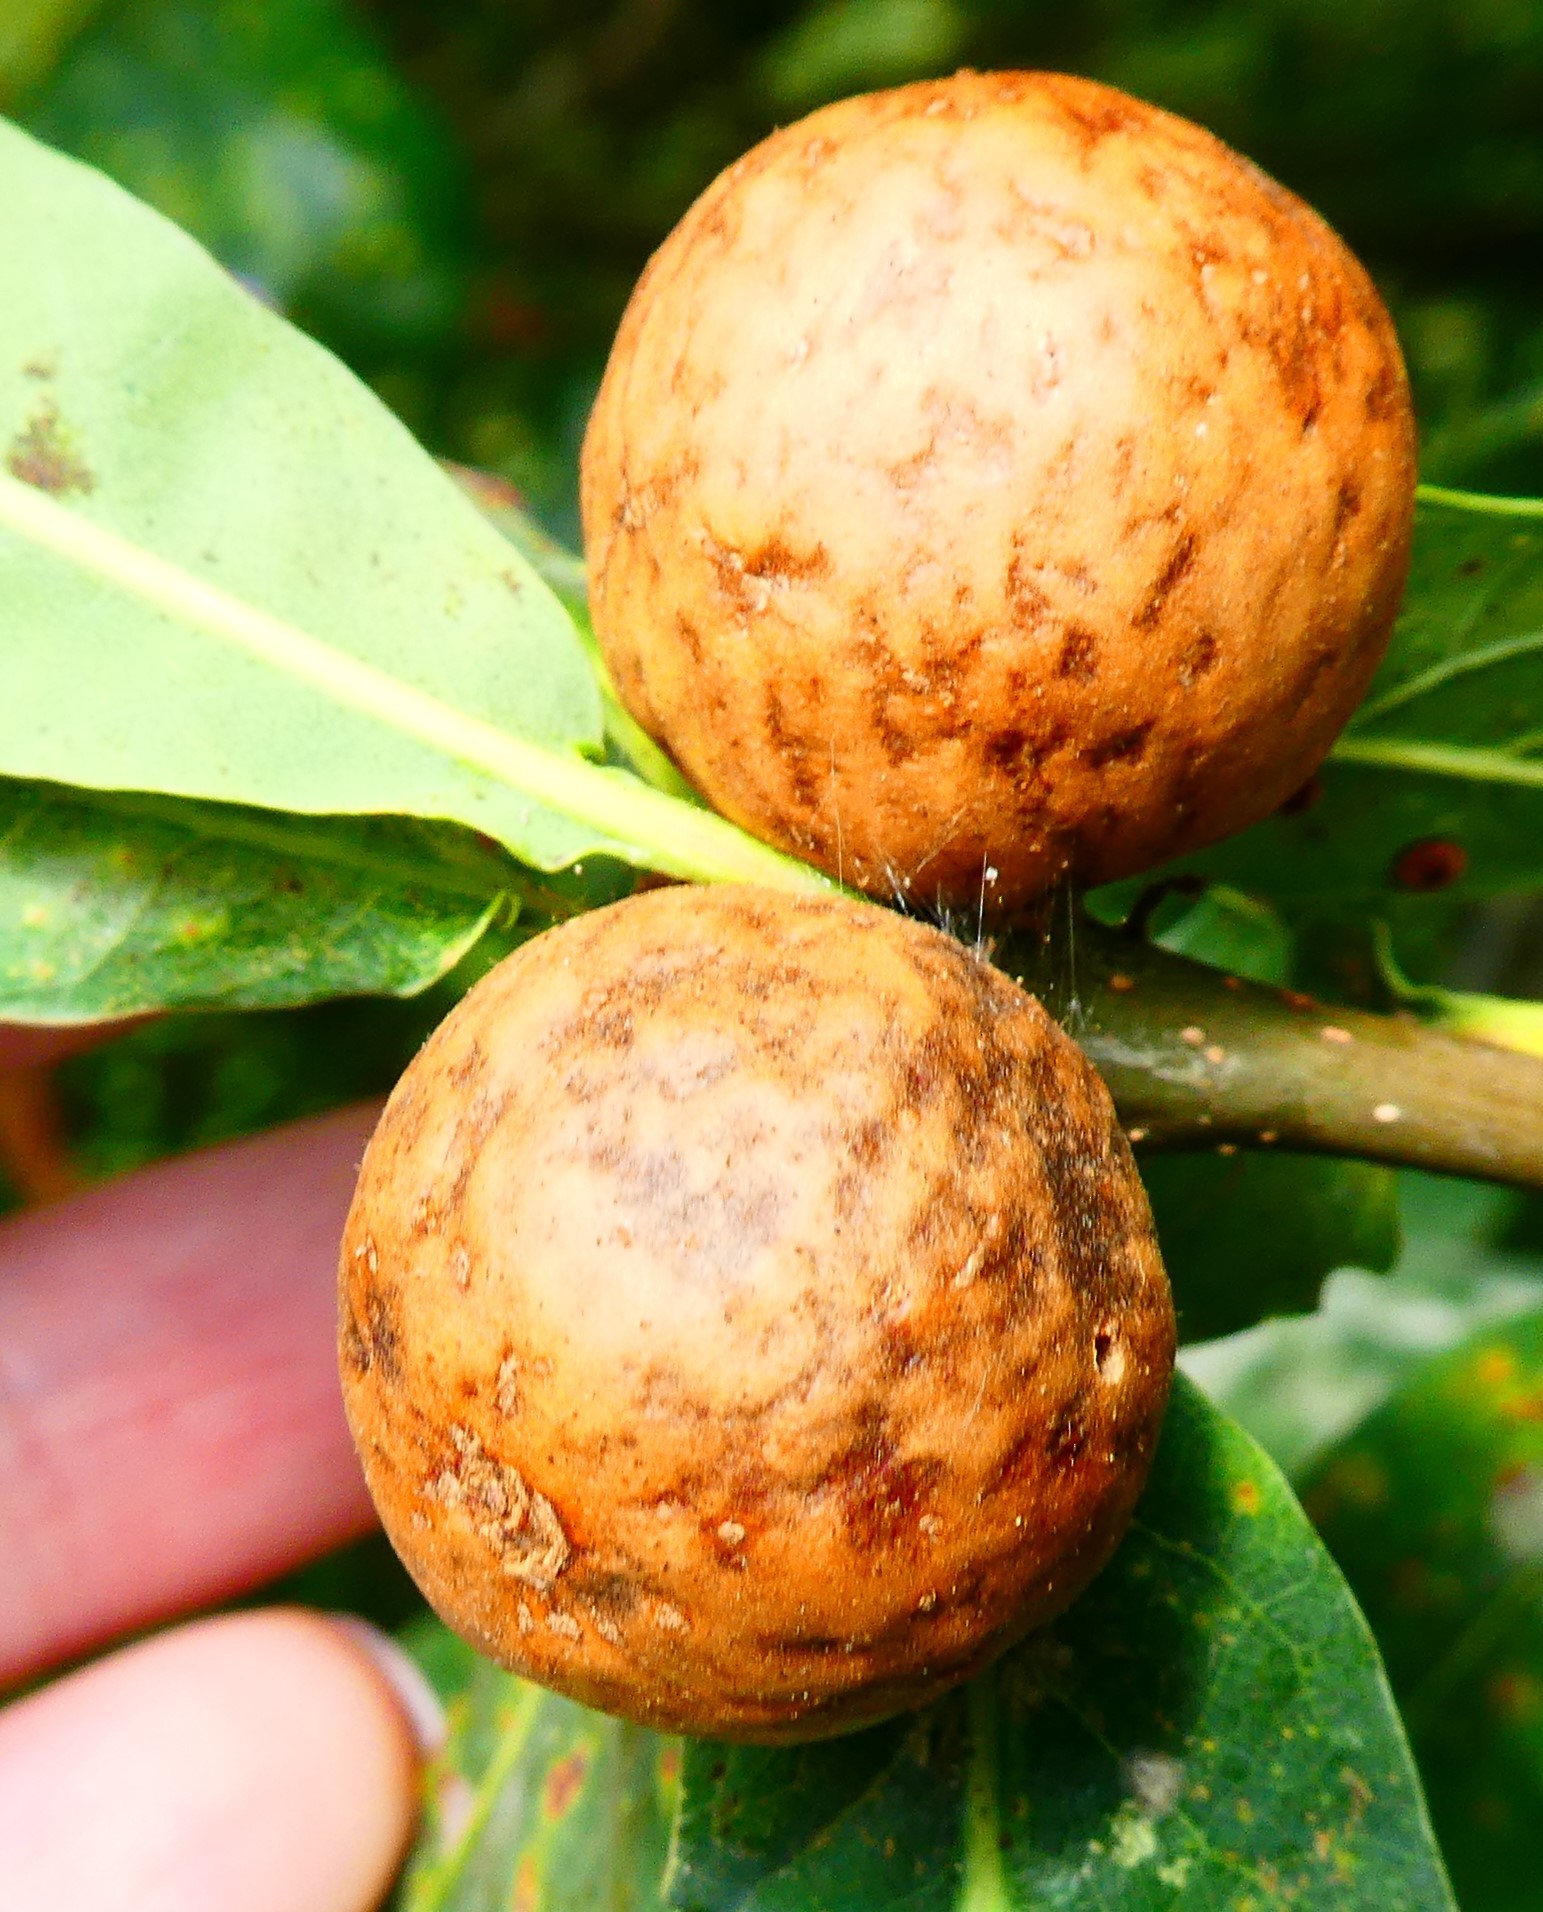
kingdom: Animalia
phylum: Arthropoda
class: Insecta
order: Hymenoptera
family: Cynipidae
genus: Andricus
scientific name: Andricus kollari
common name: Marble gall
